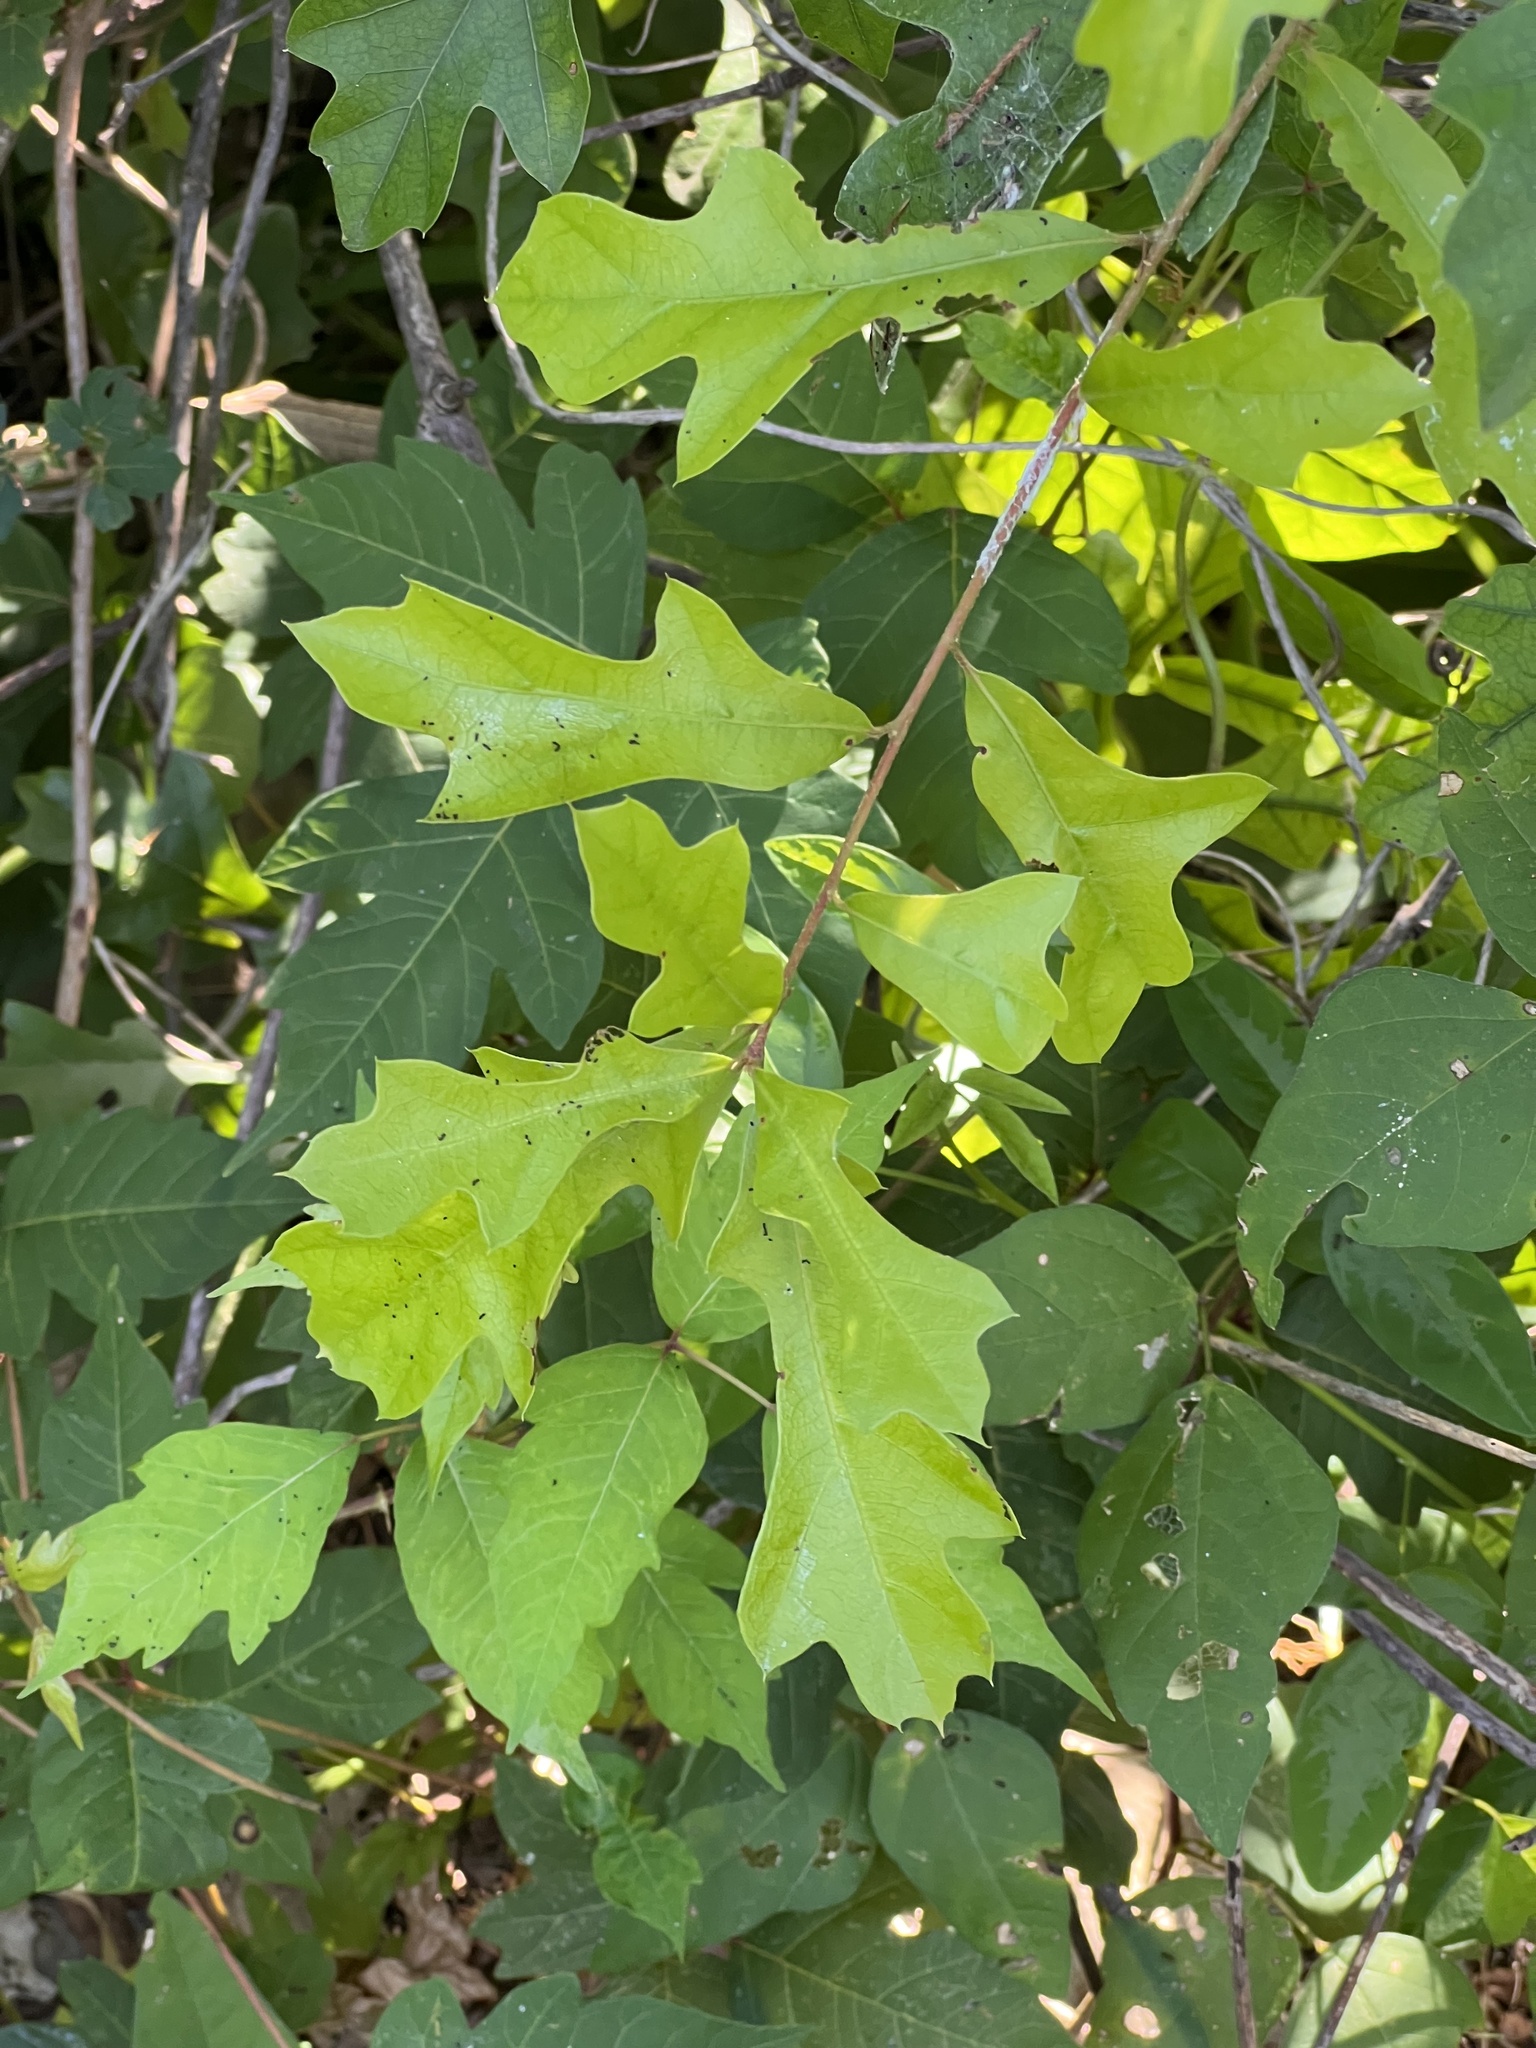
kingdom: Plantae
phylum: Tracheophyta
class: Magnoliopsida
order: Fagales
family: Fagaceae
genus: Quercus
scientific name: Quercus nigra
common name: Water oak
